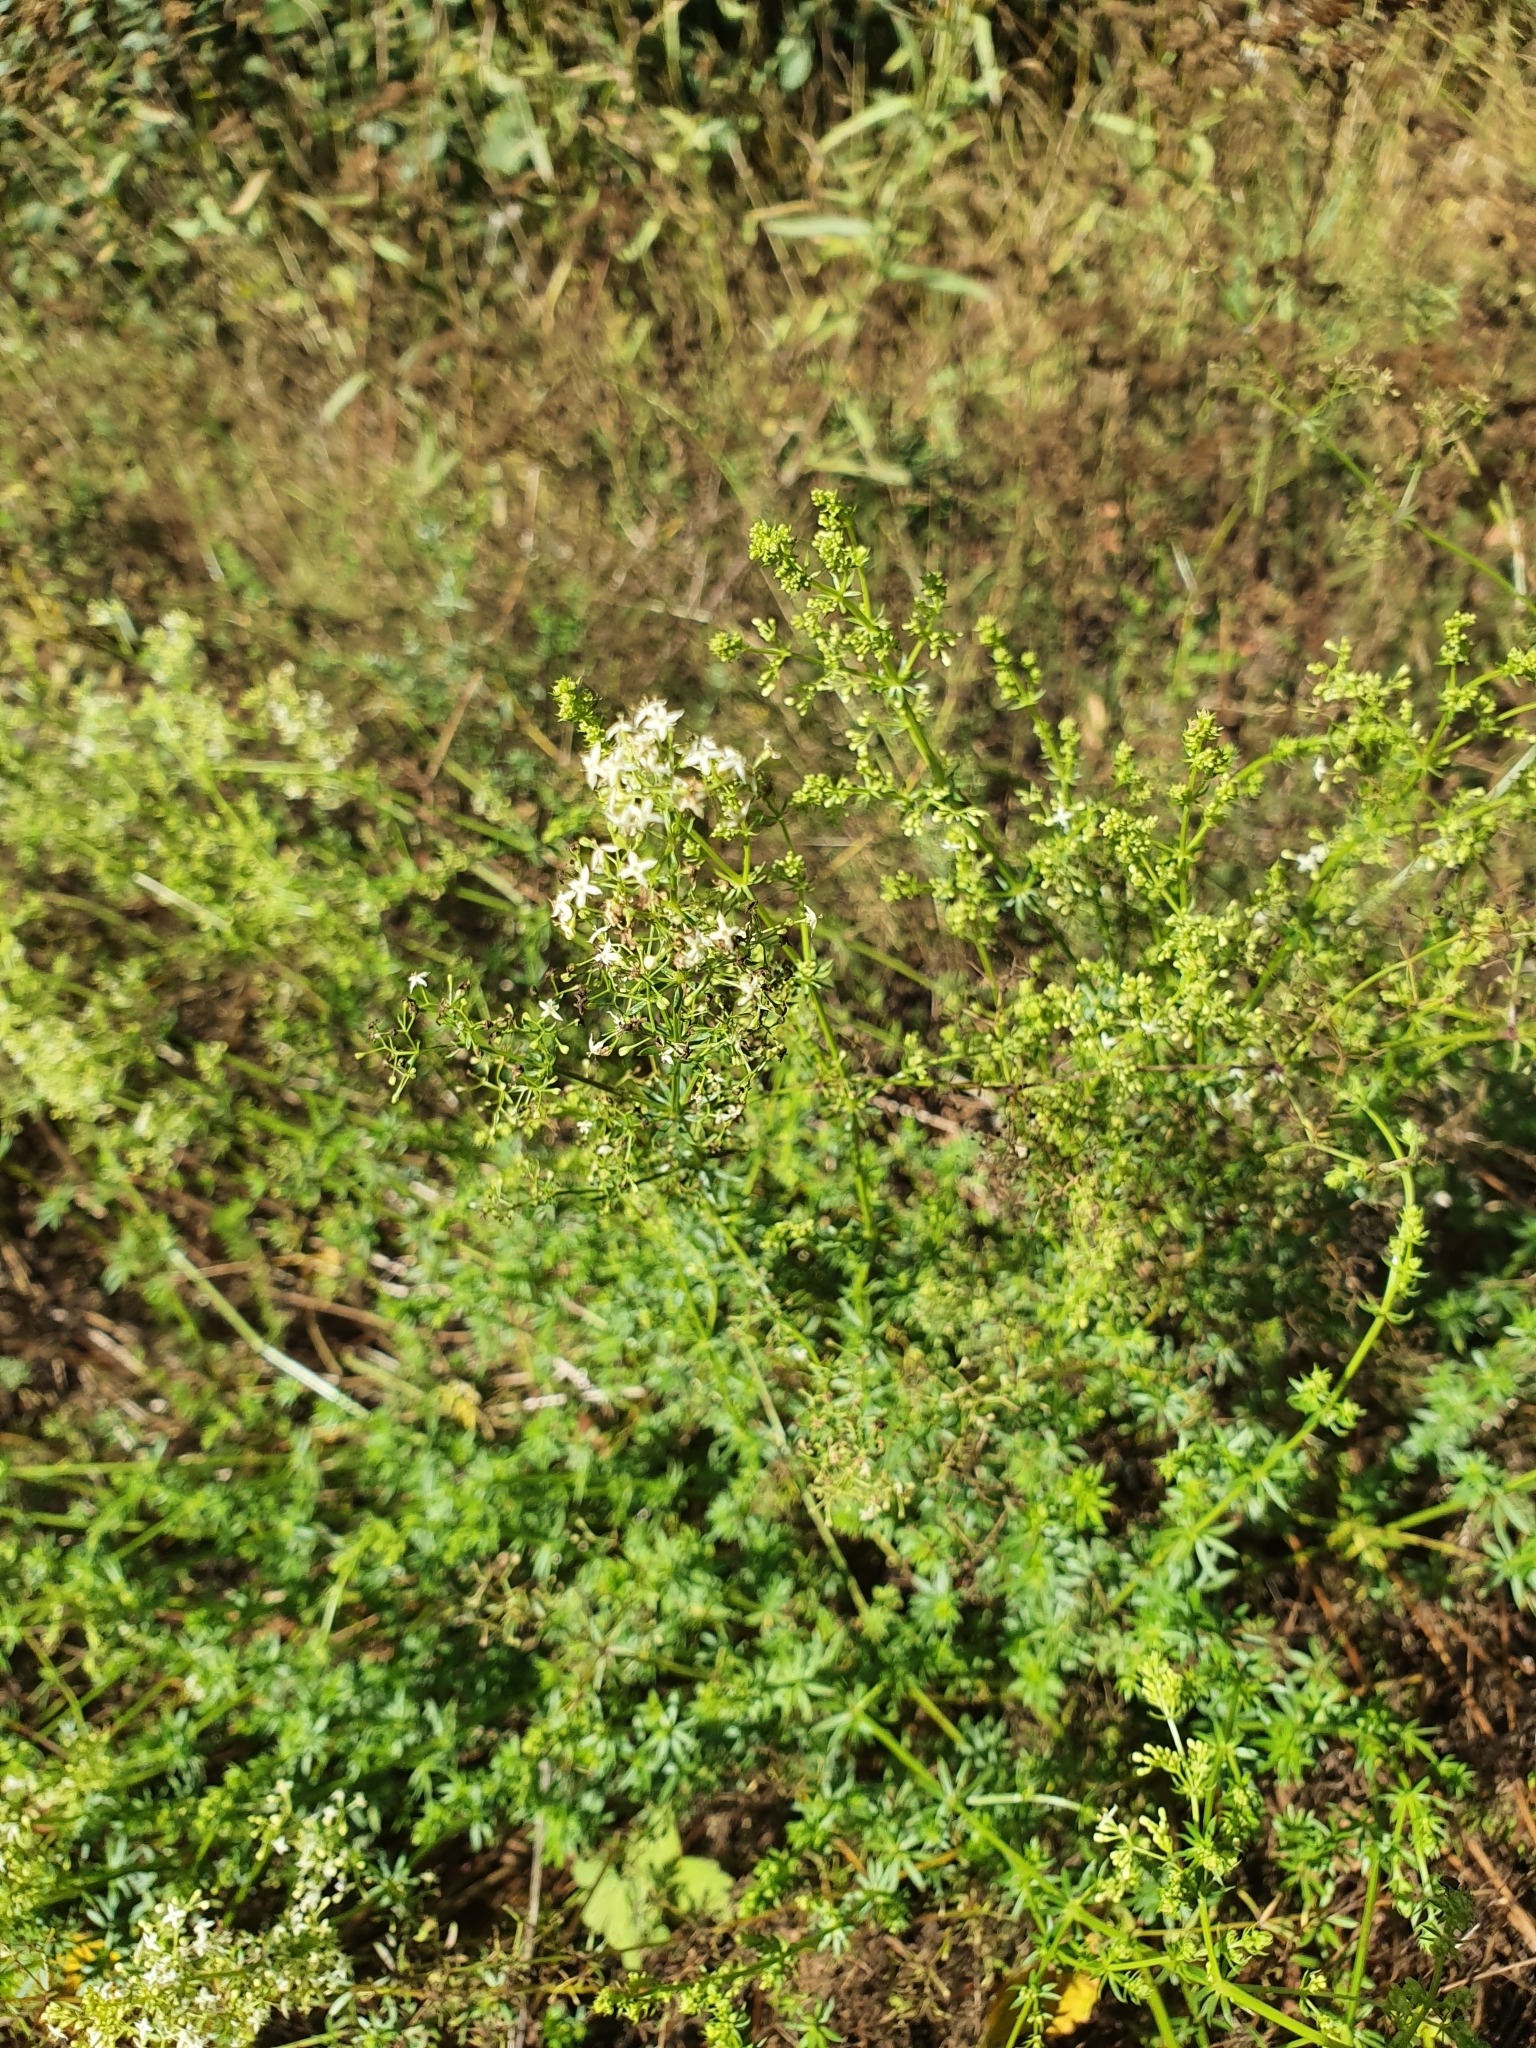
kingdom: Plantae
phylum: Tracheophyta
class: Magnoliopsida
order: Gentianales
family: Rubiaceae
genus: Galium
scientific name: Galium mollugo
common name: Hedge bedstraw
